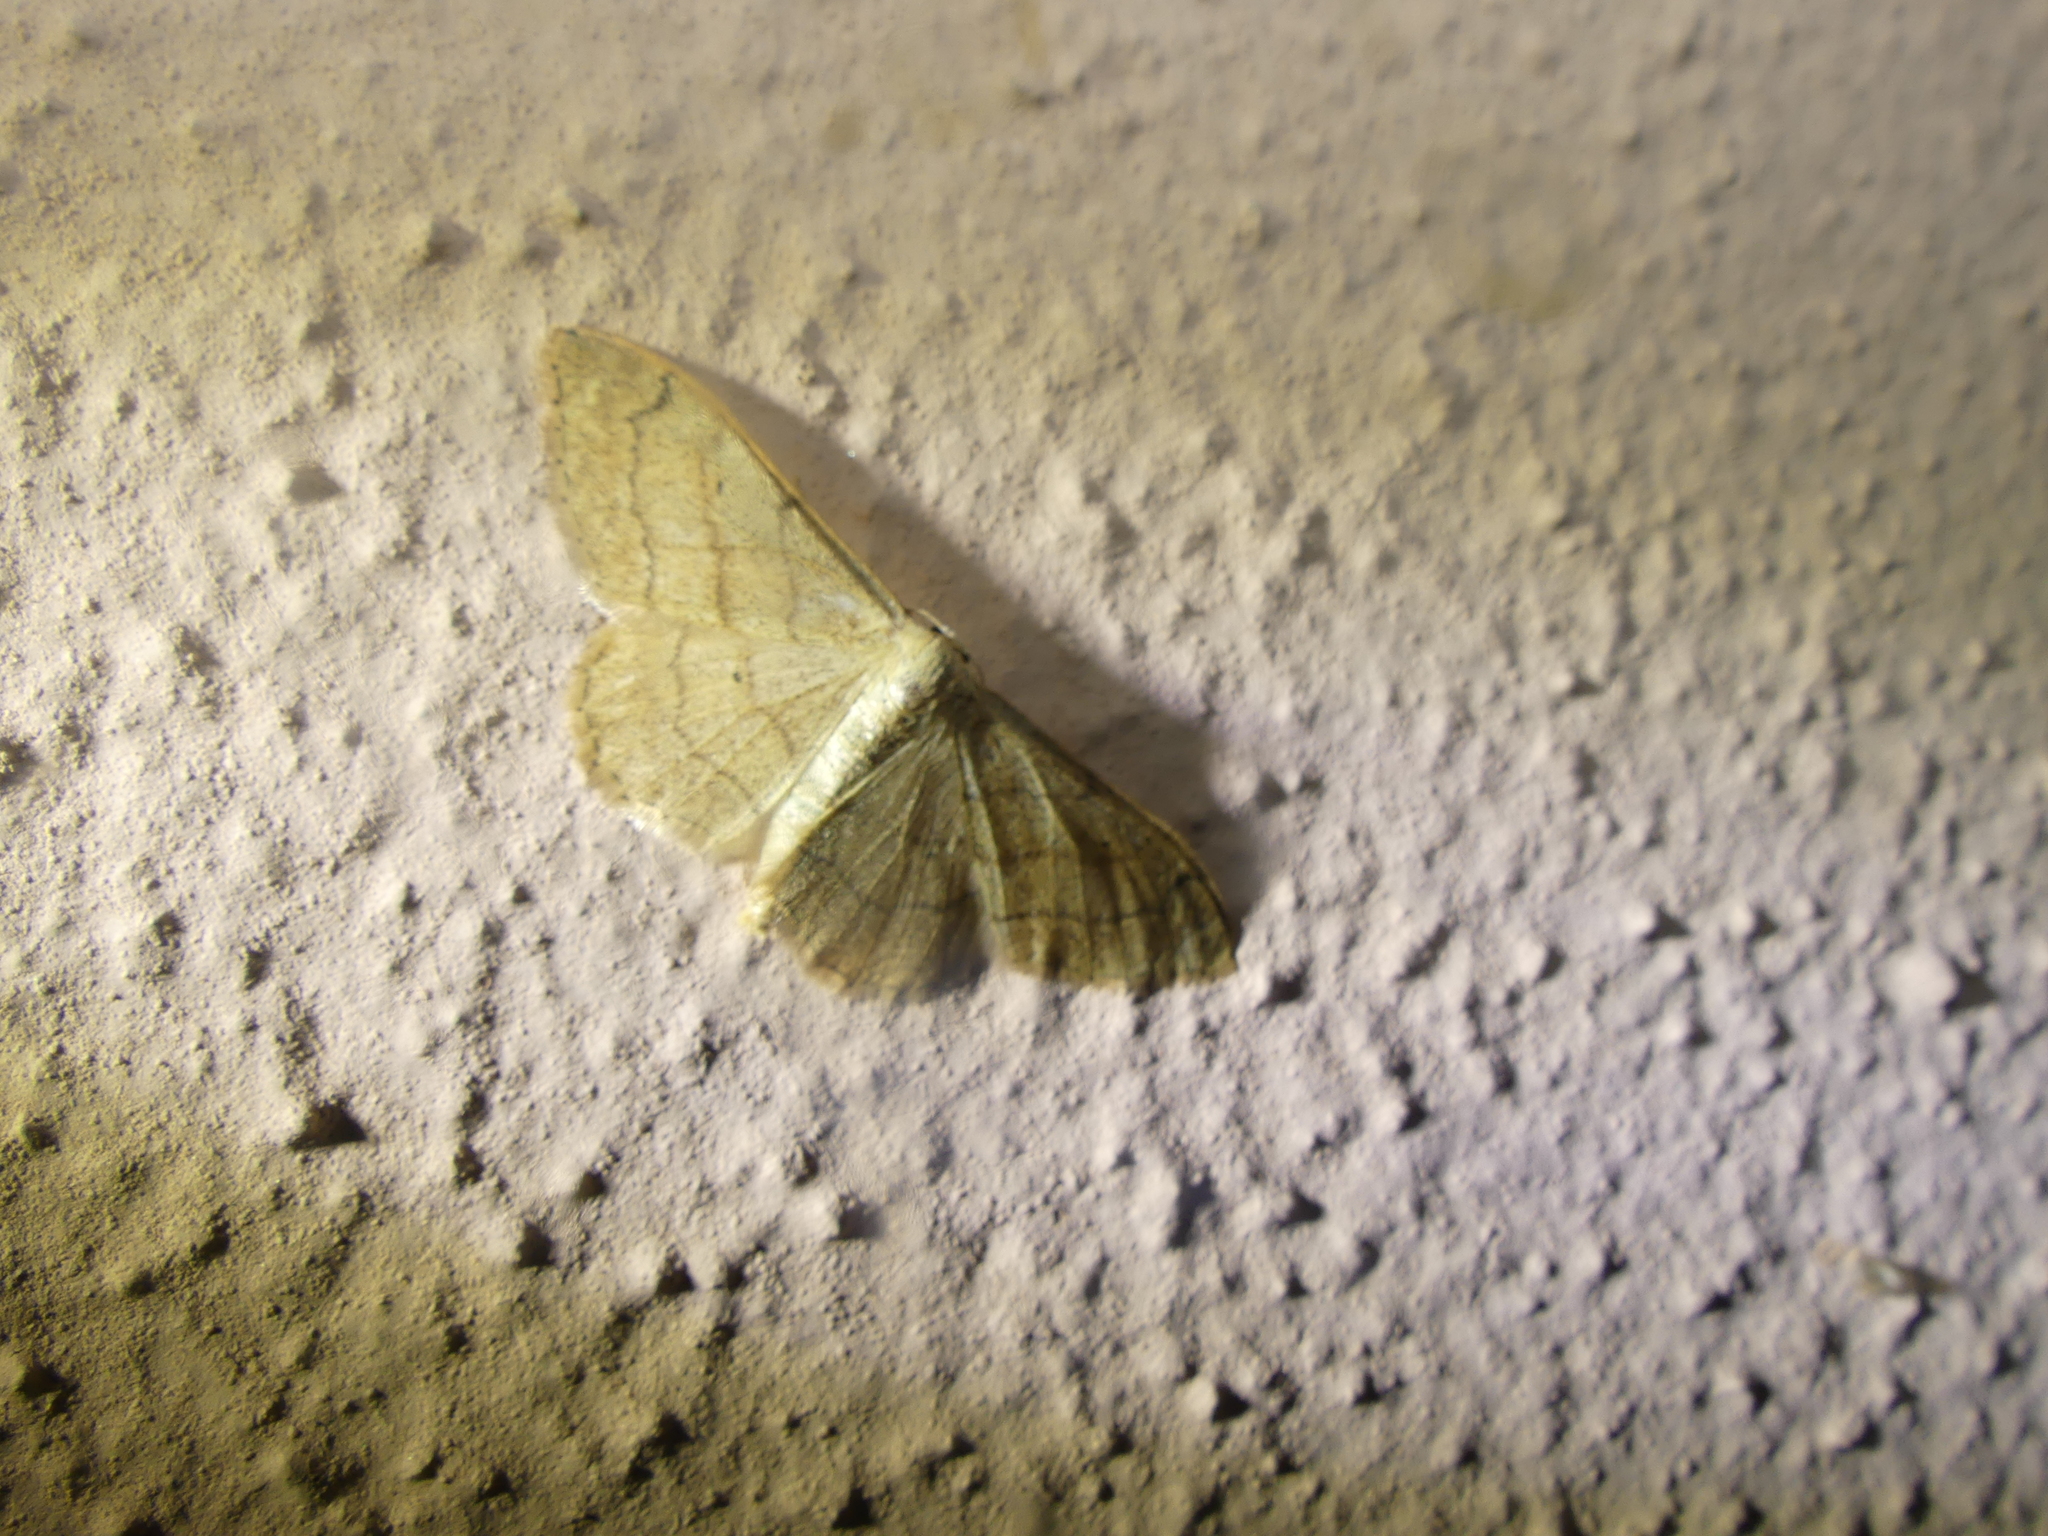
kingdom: Animalia
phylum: Arthropoda
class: Insecta
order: Lepidoptera
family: Geometridae
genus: Idaea
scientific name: Idaea aversata
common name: Riband wave
